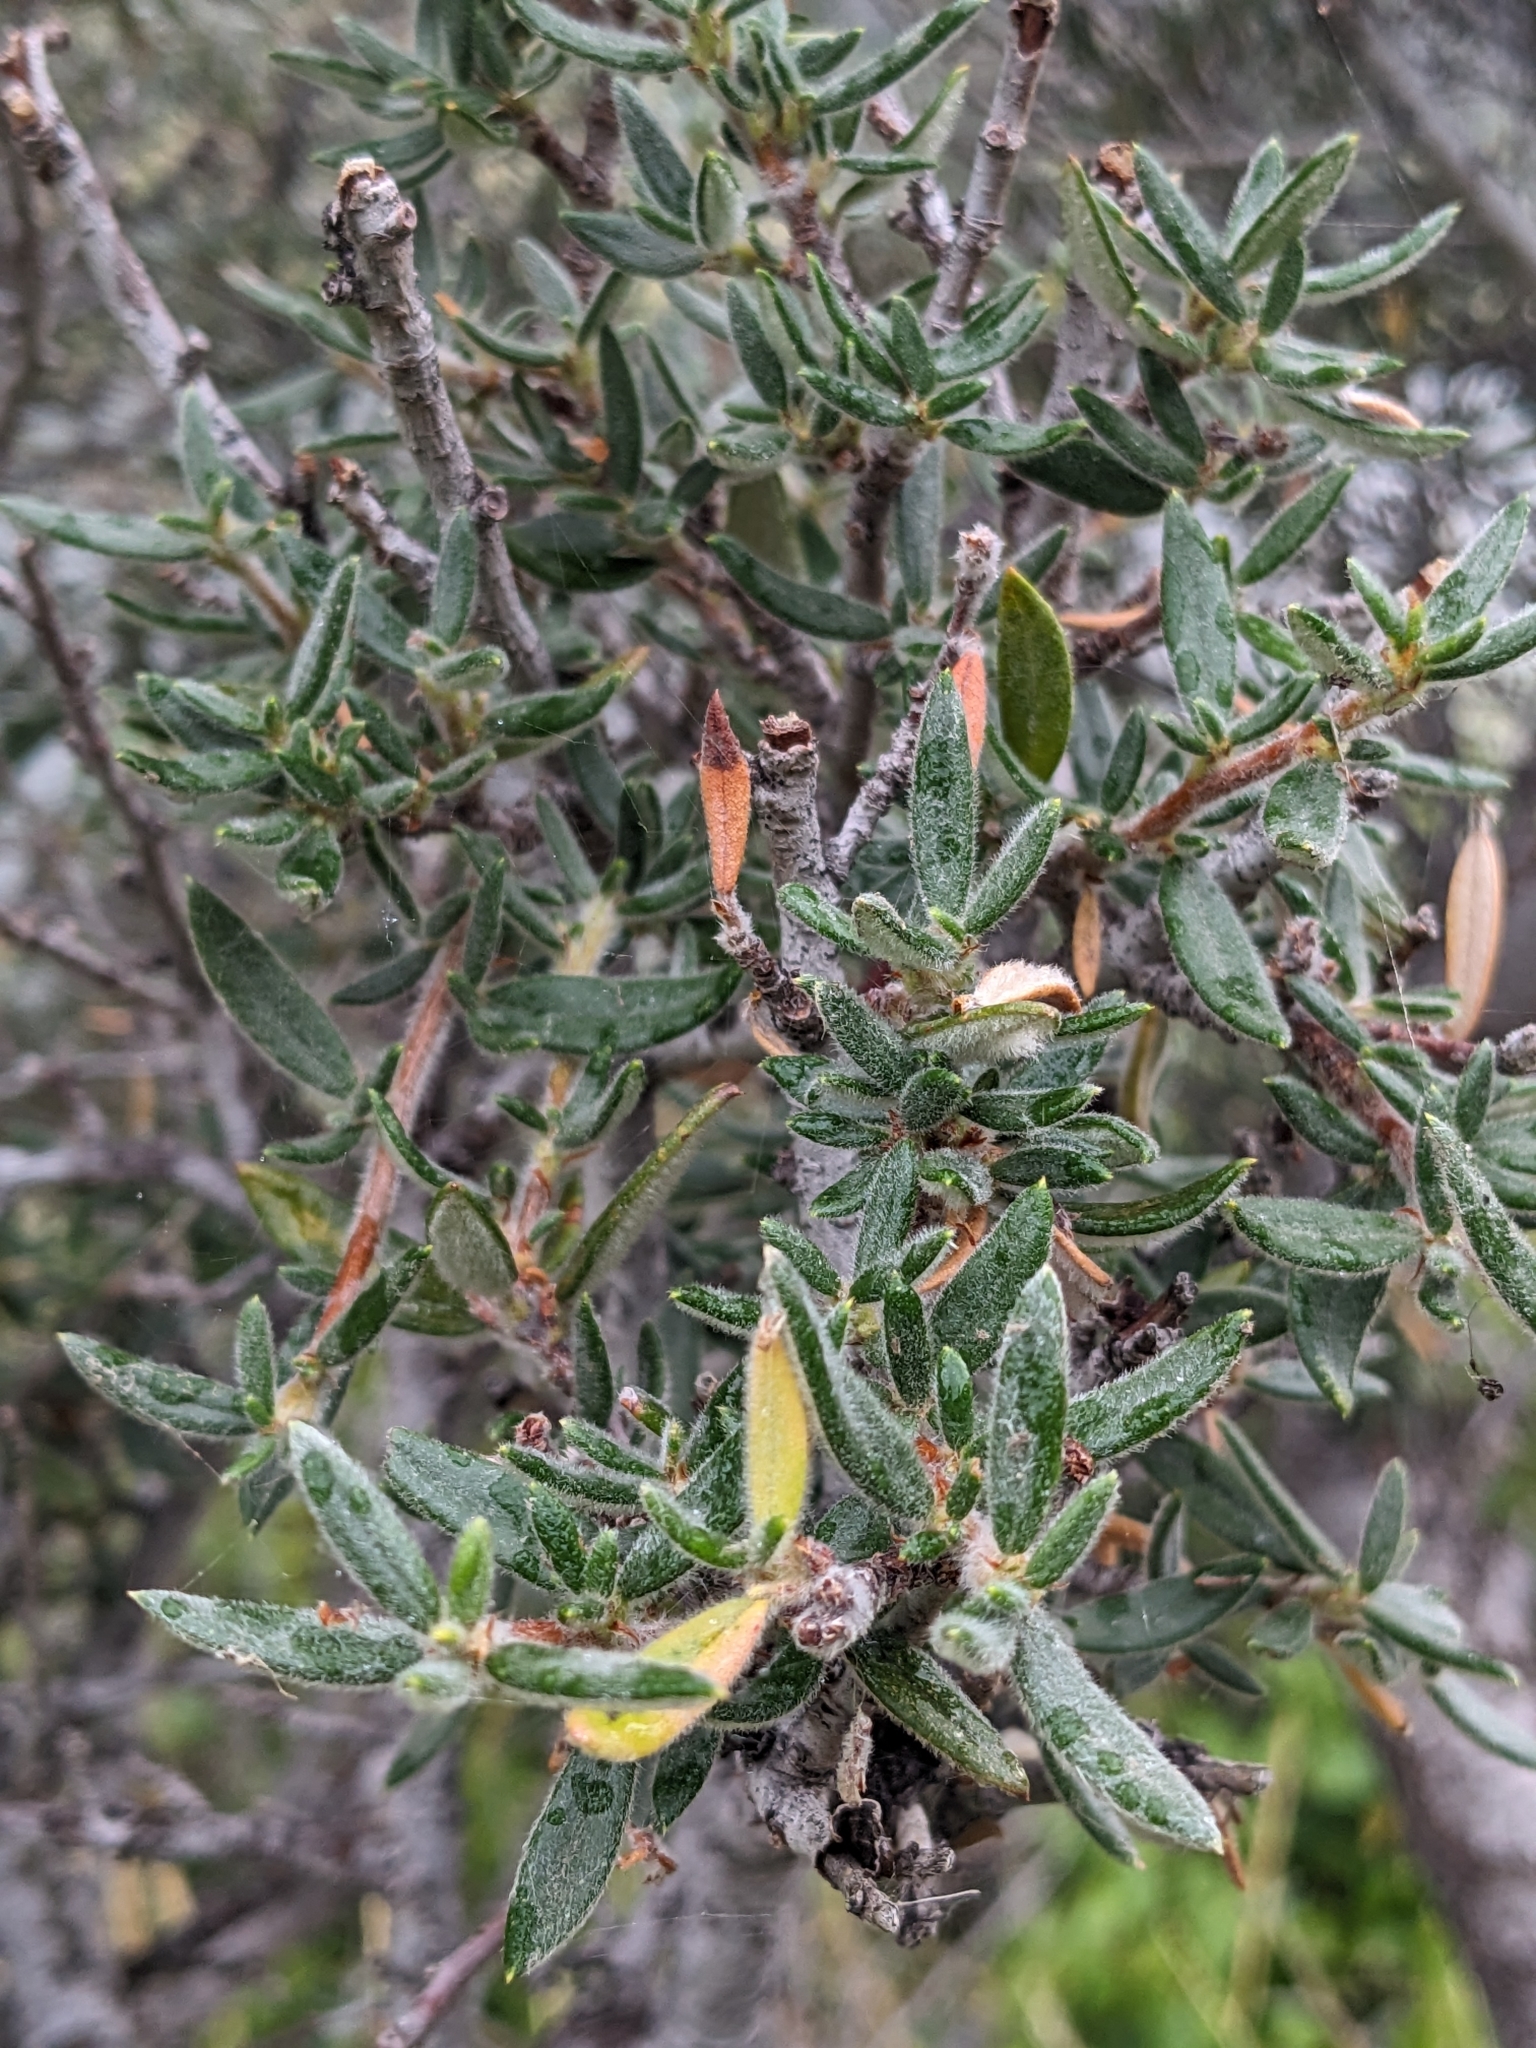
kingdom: Plantae
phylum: Tracheophyta
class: Magnoliopsida
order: Rosales
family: Rosaceae
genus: Cercocarpus
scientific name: Cercocarpus ledifolius
